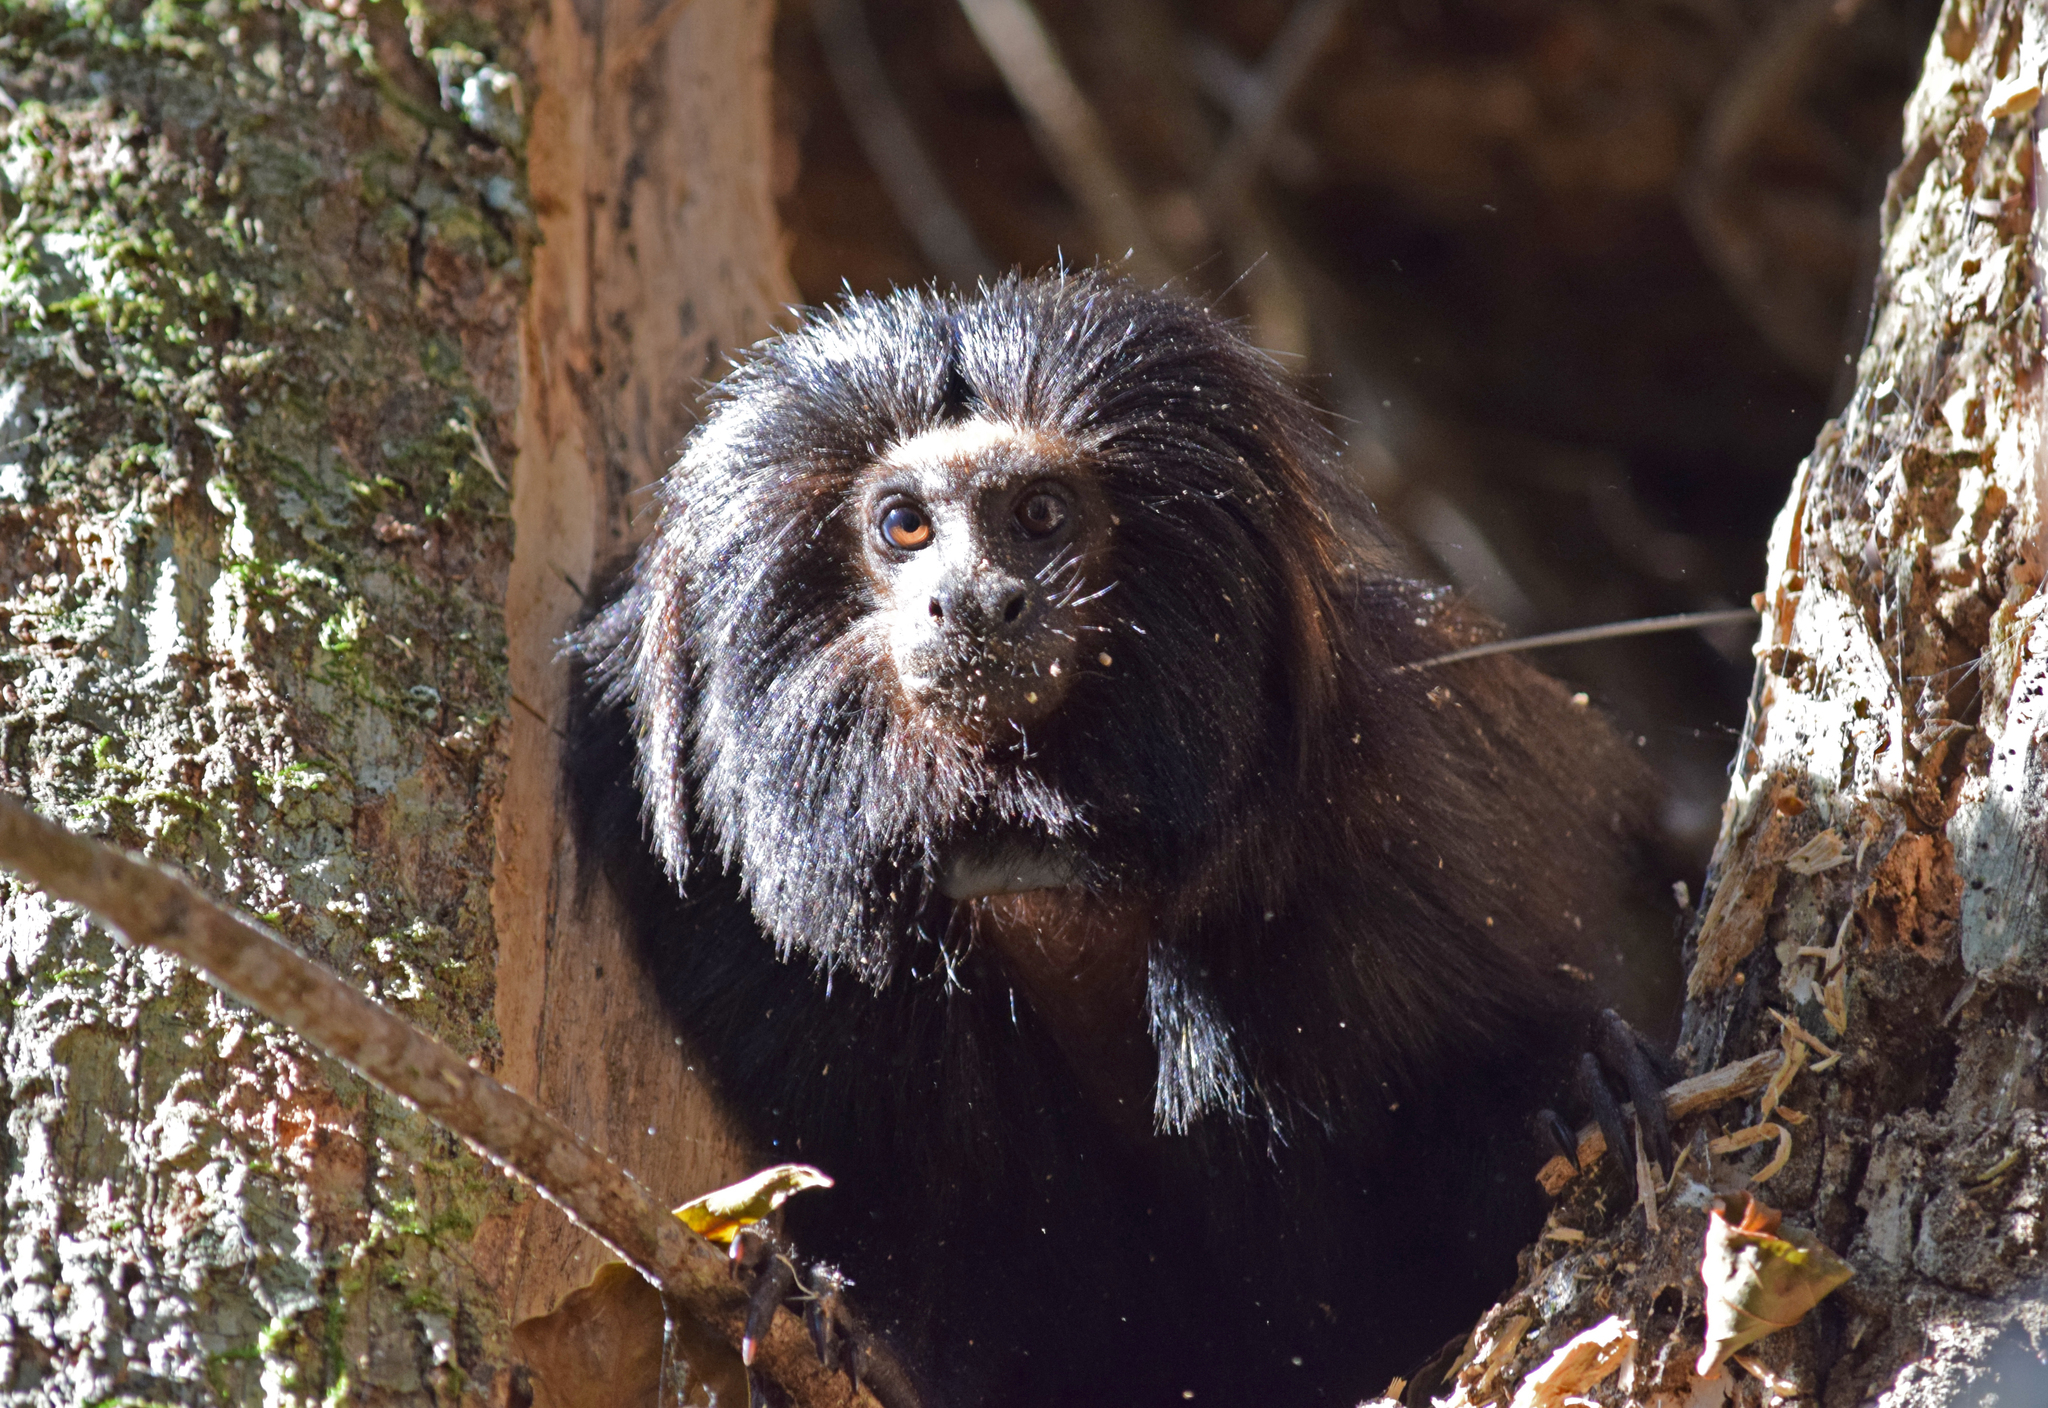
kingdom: Animalia
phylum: Chordata
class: Mammalia
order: Primates
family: Callitrichidae
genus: Leontopithecus
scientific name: Leontopithecus chrysopygus
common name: Black lion tamarin
